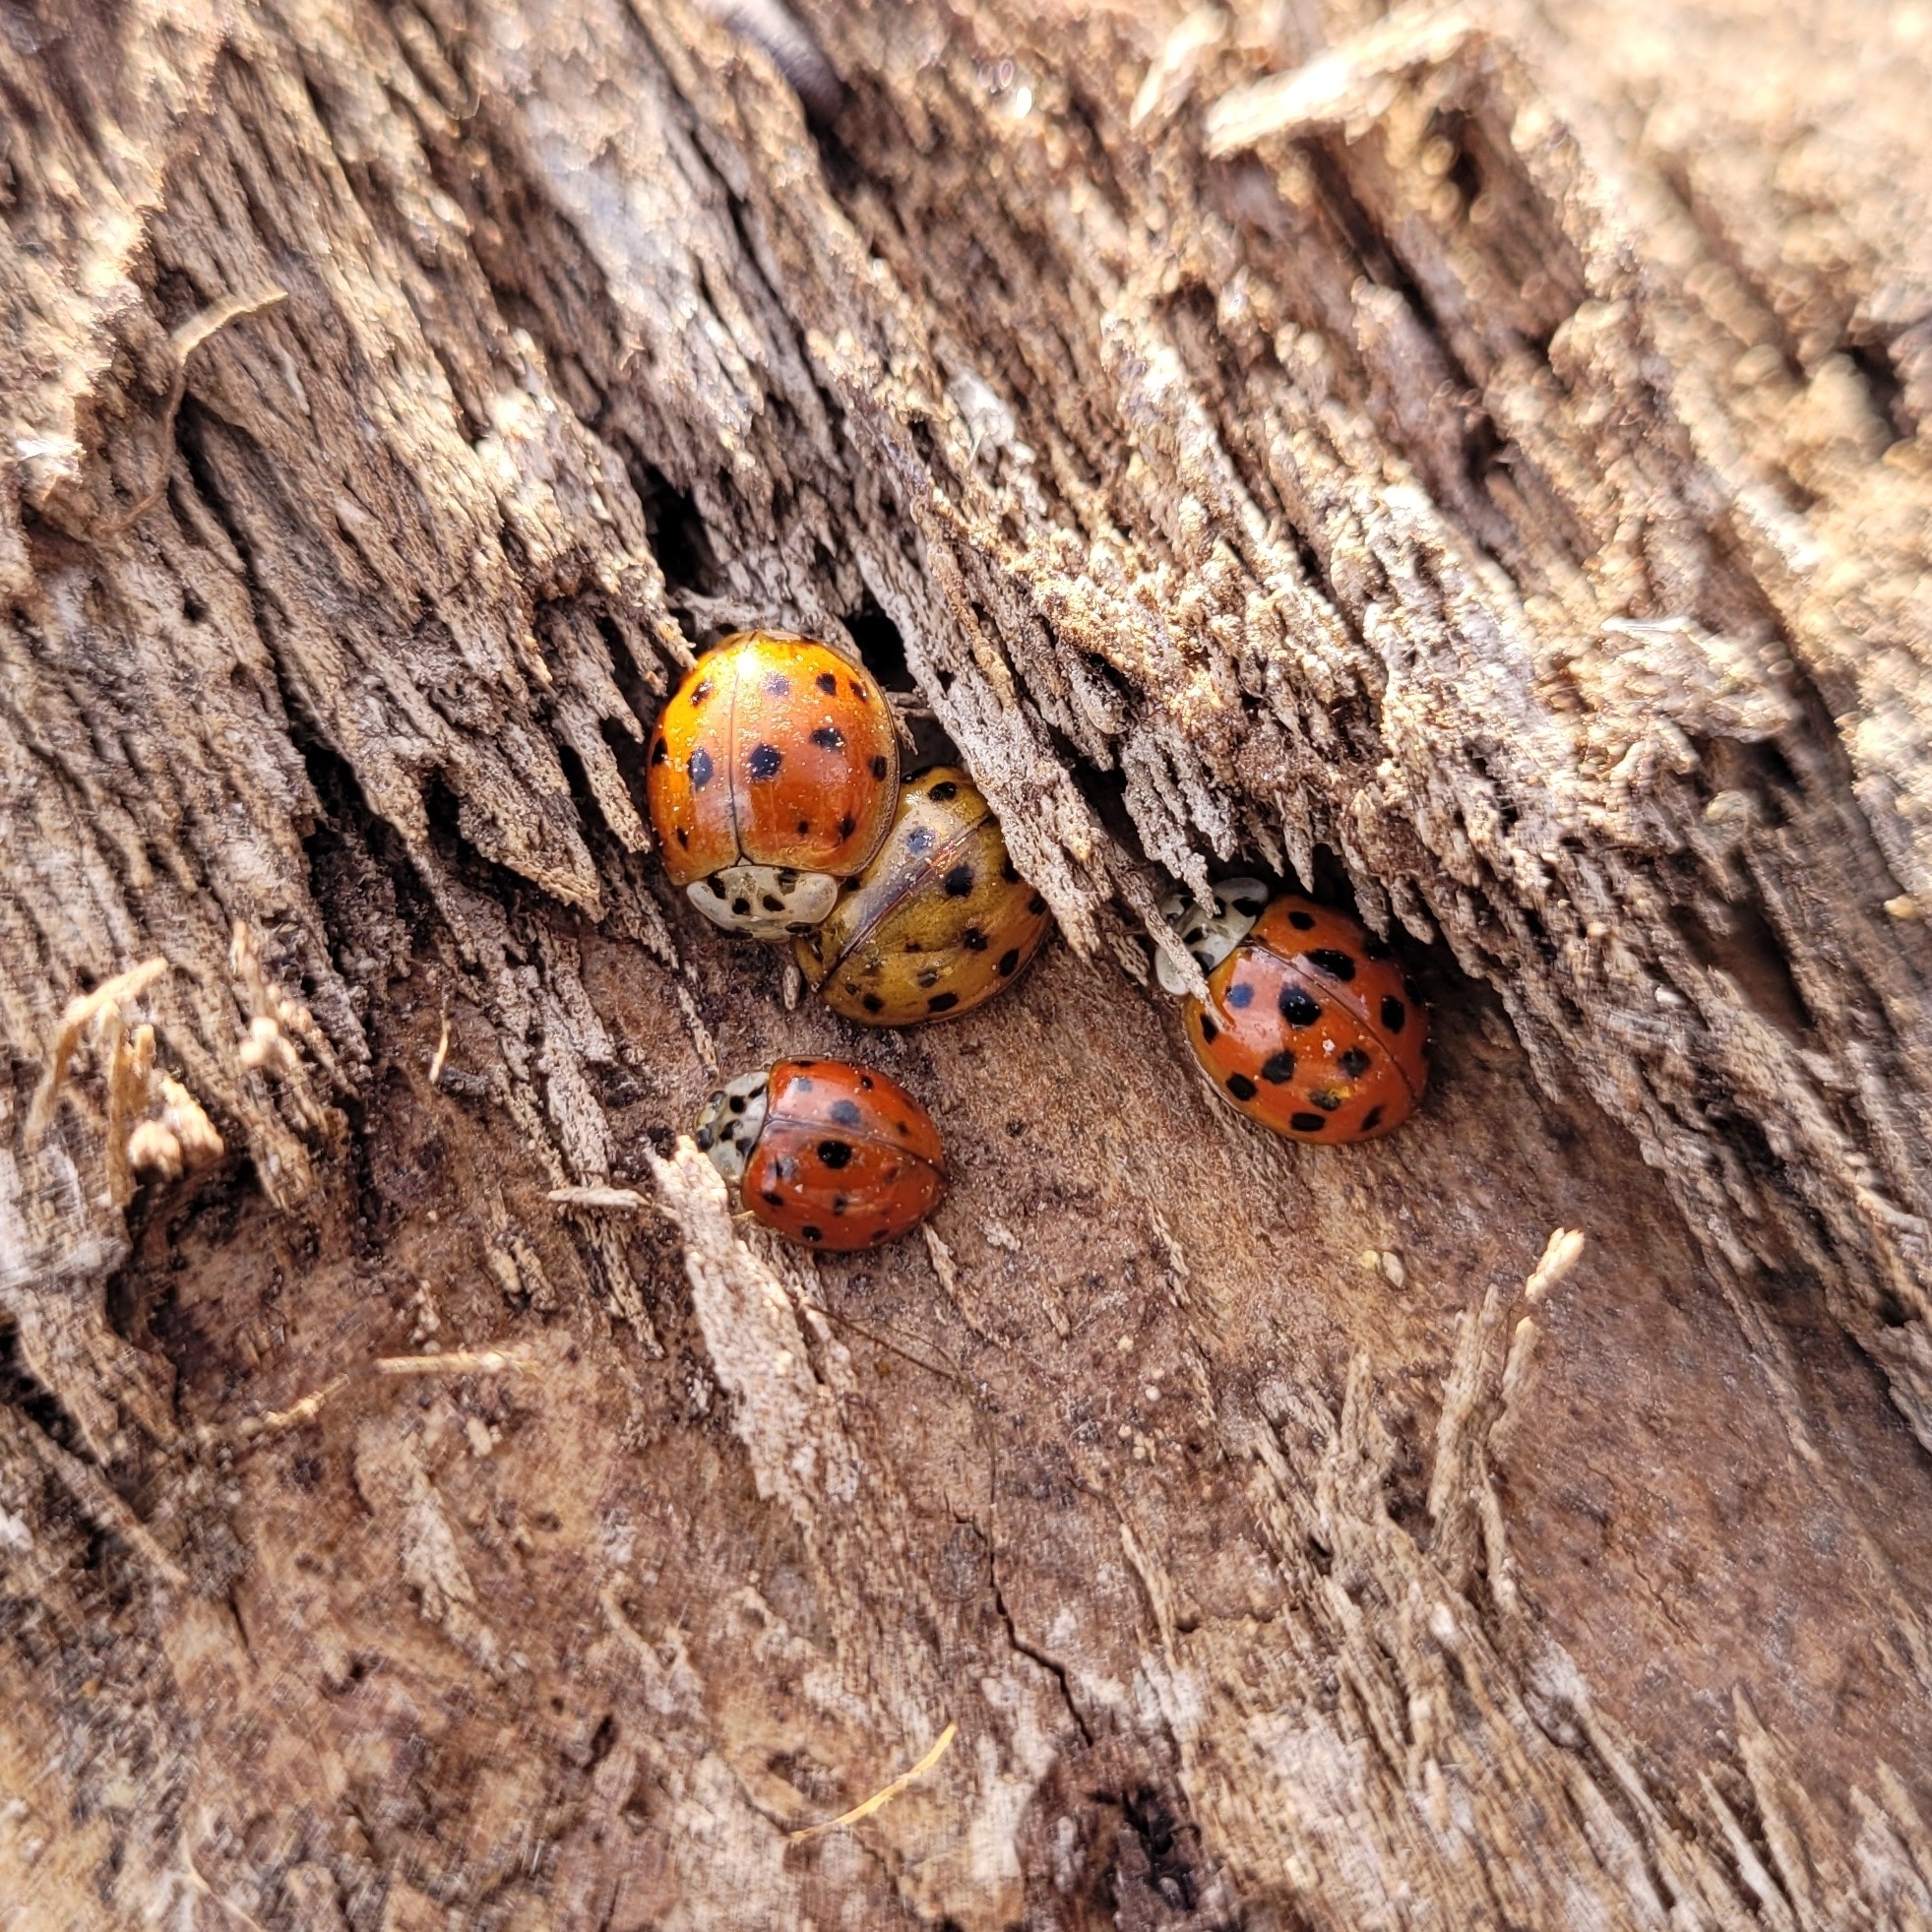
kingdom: Animalia
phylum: Arthropoda
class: Insecta
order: Coleoptera
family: Coccinellidae
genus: Harmonia
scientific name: Harmonia axyridis
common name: Harlequin ladybird
